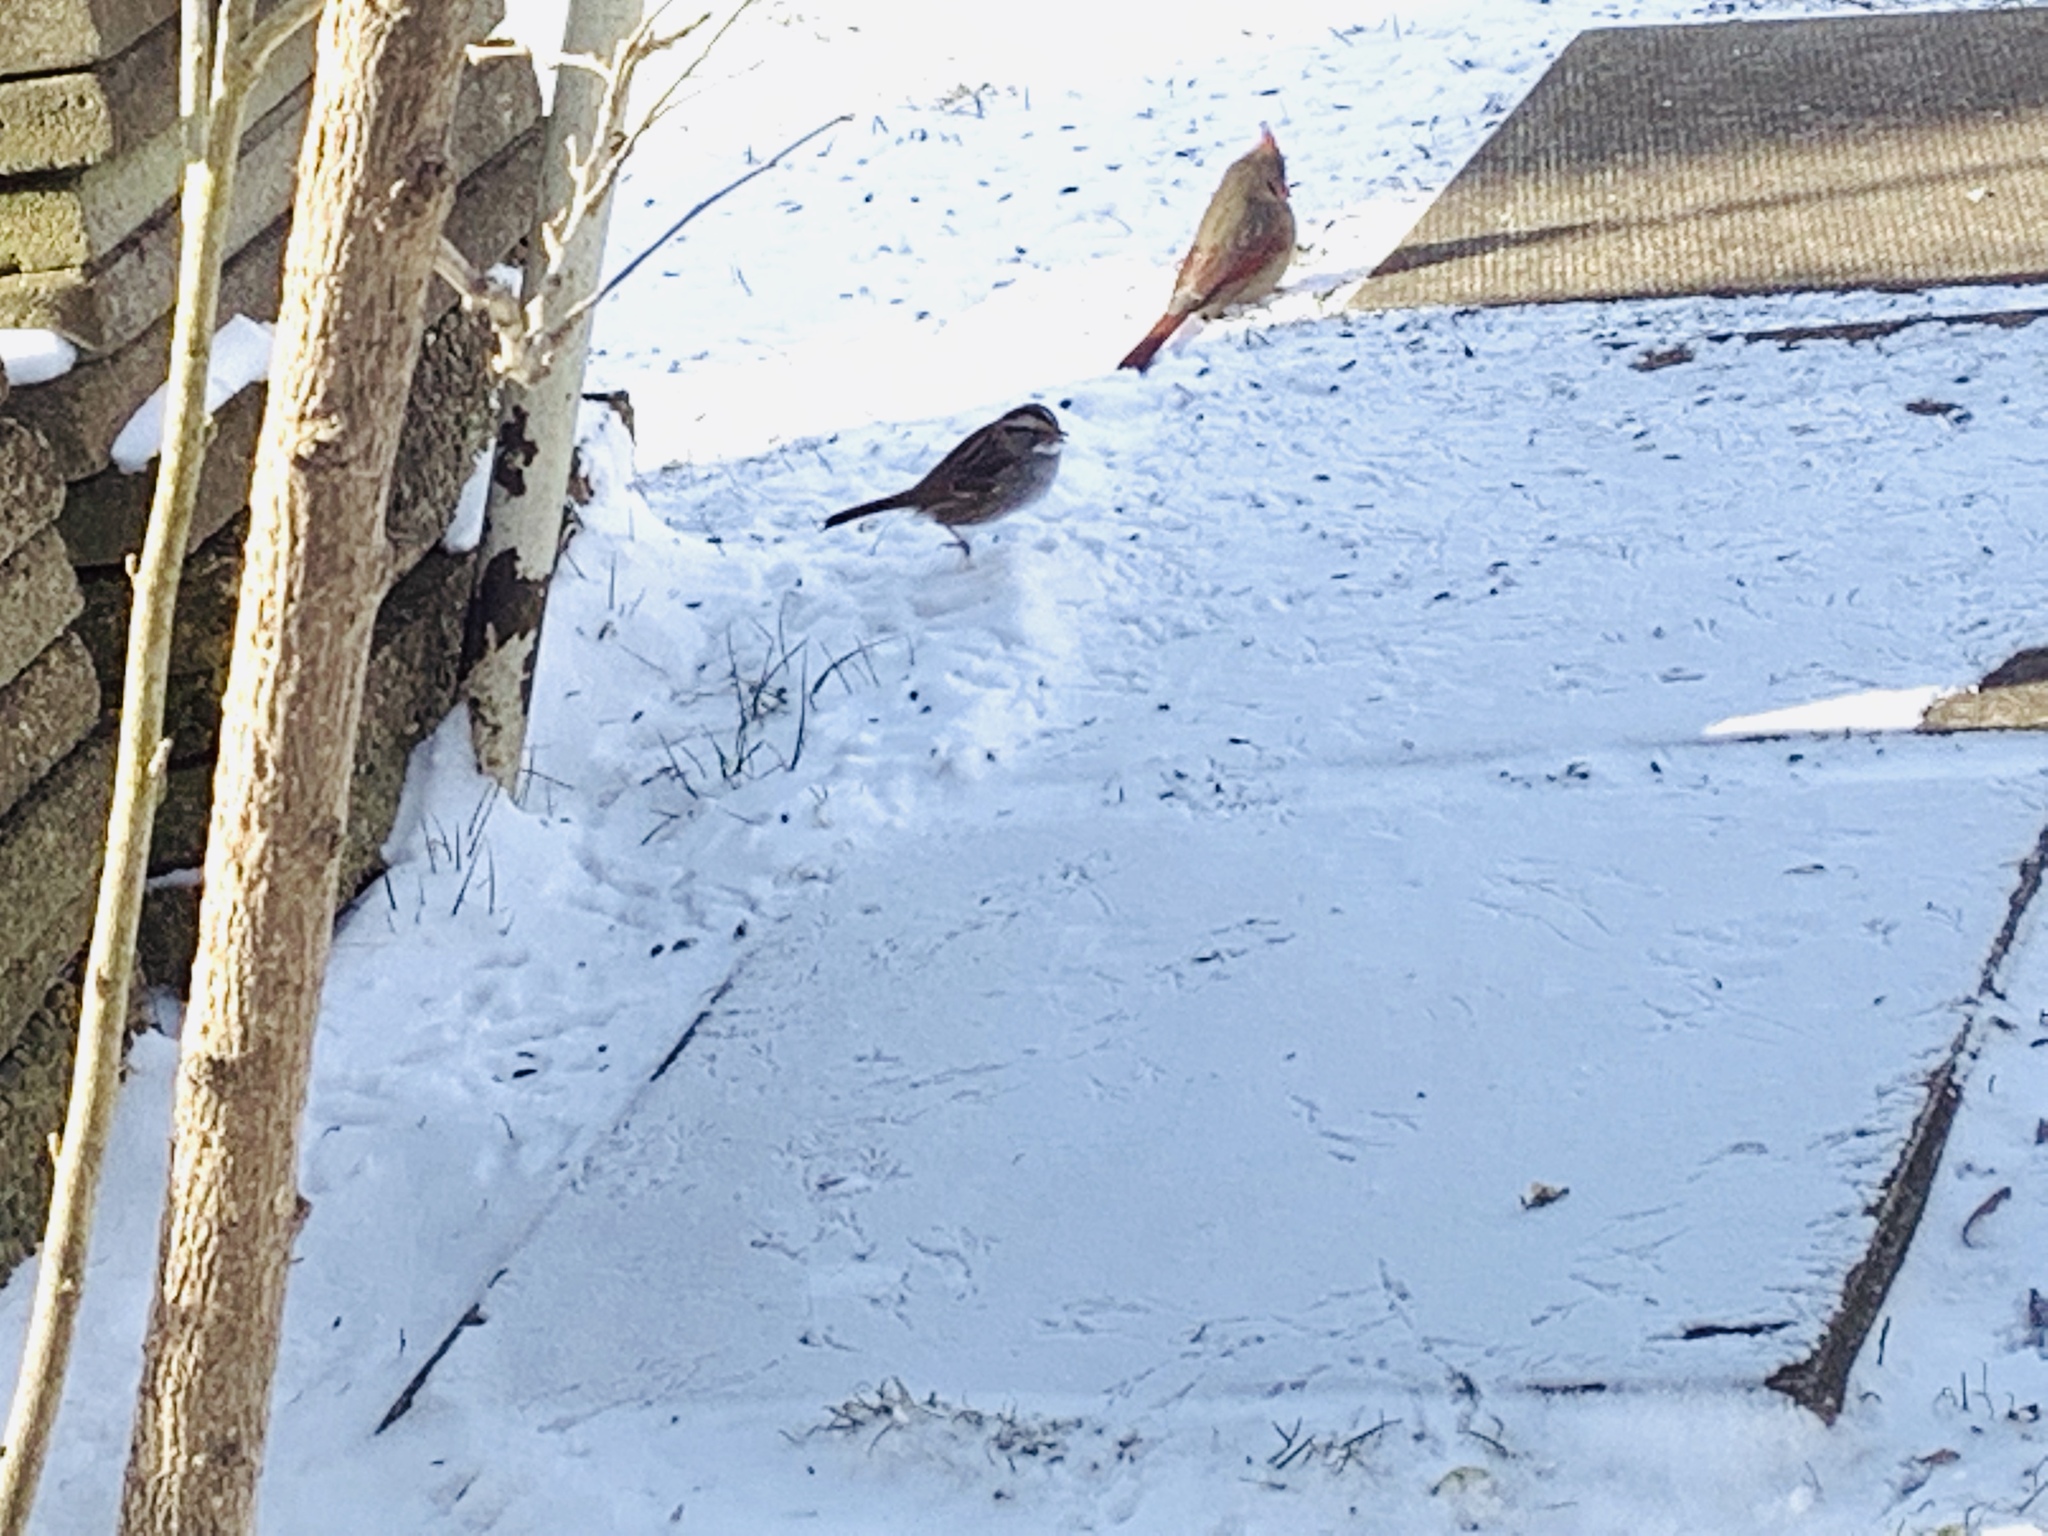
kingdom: Animalia
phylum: Chordata
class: Aves
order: Passeriformes
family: Passerellidae
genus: Zonotrichia
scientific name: Zonotrichia albicollis
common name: White-throated sparrow
